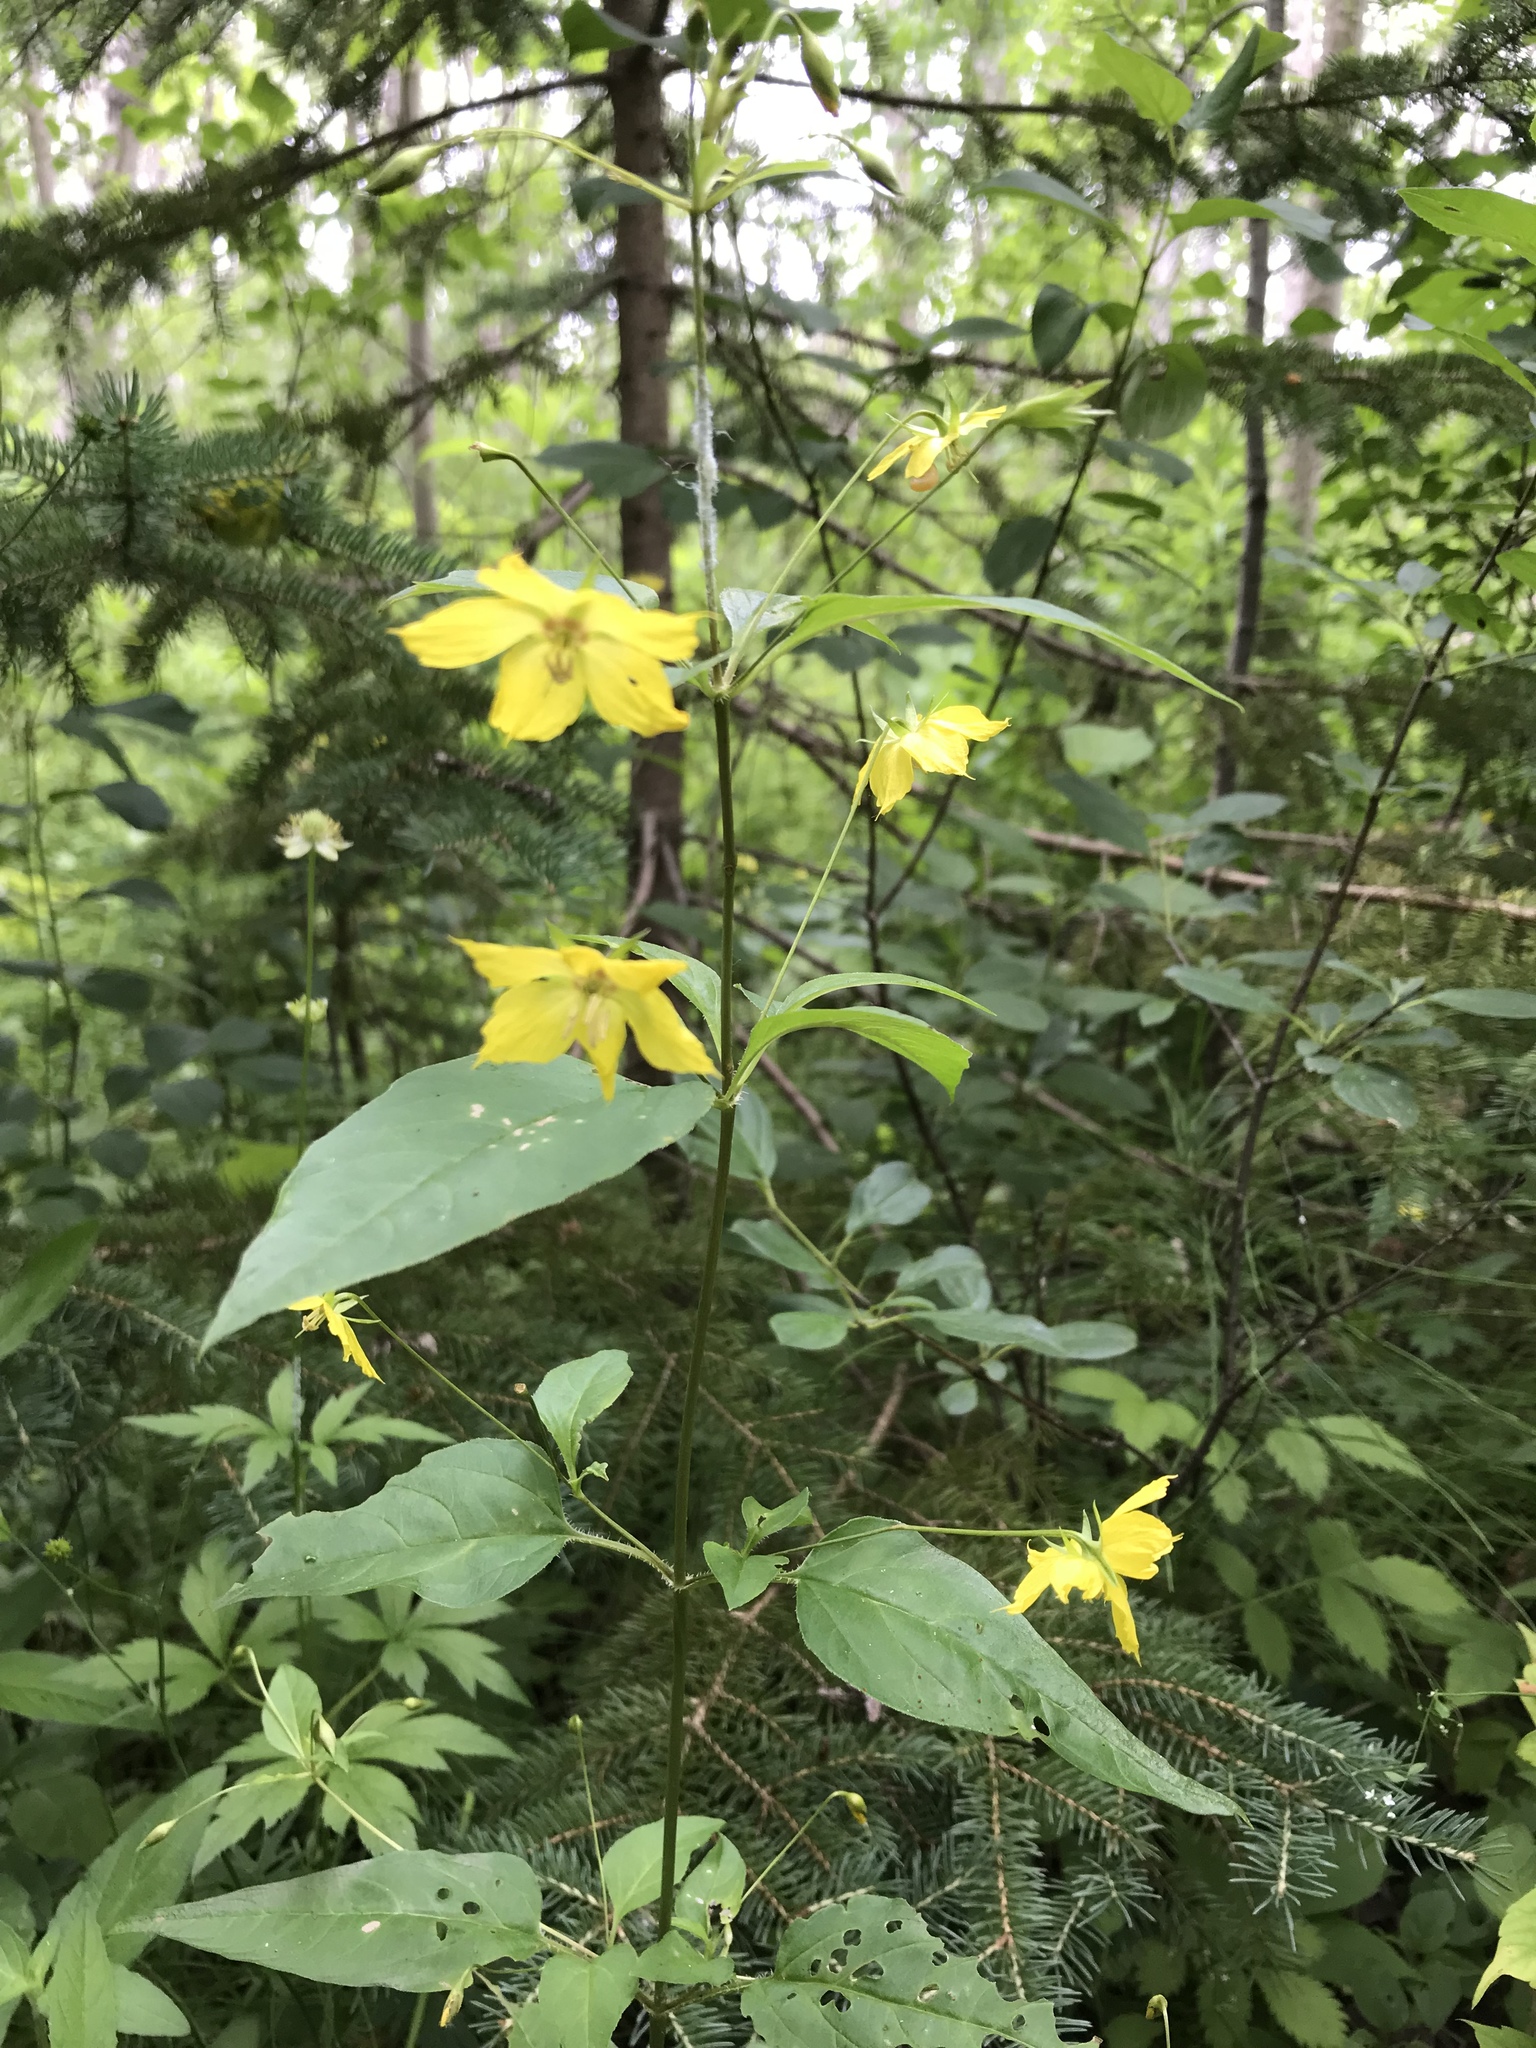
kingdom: Plantae
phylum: Tracheophyta
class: Magnoliopsida
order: Ericales
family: Primulaceae
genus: Lysimachia
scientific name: Lysimachia ciliata
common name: Fringed loosestrife
